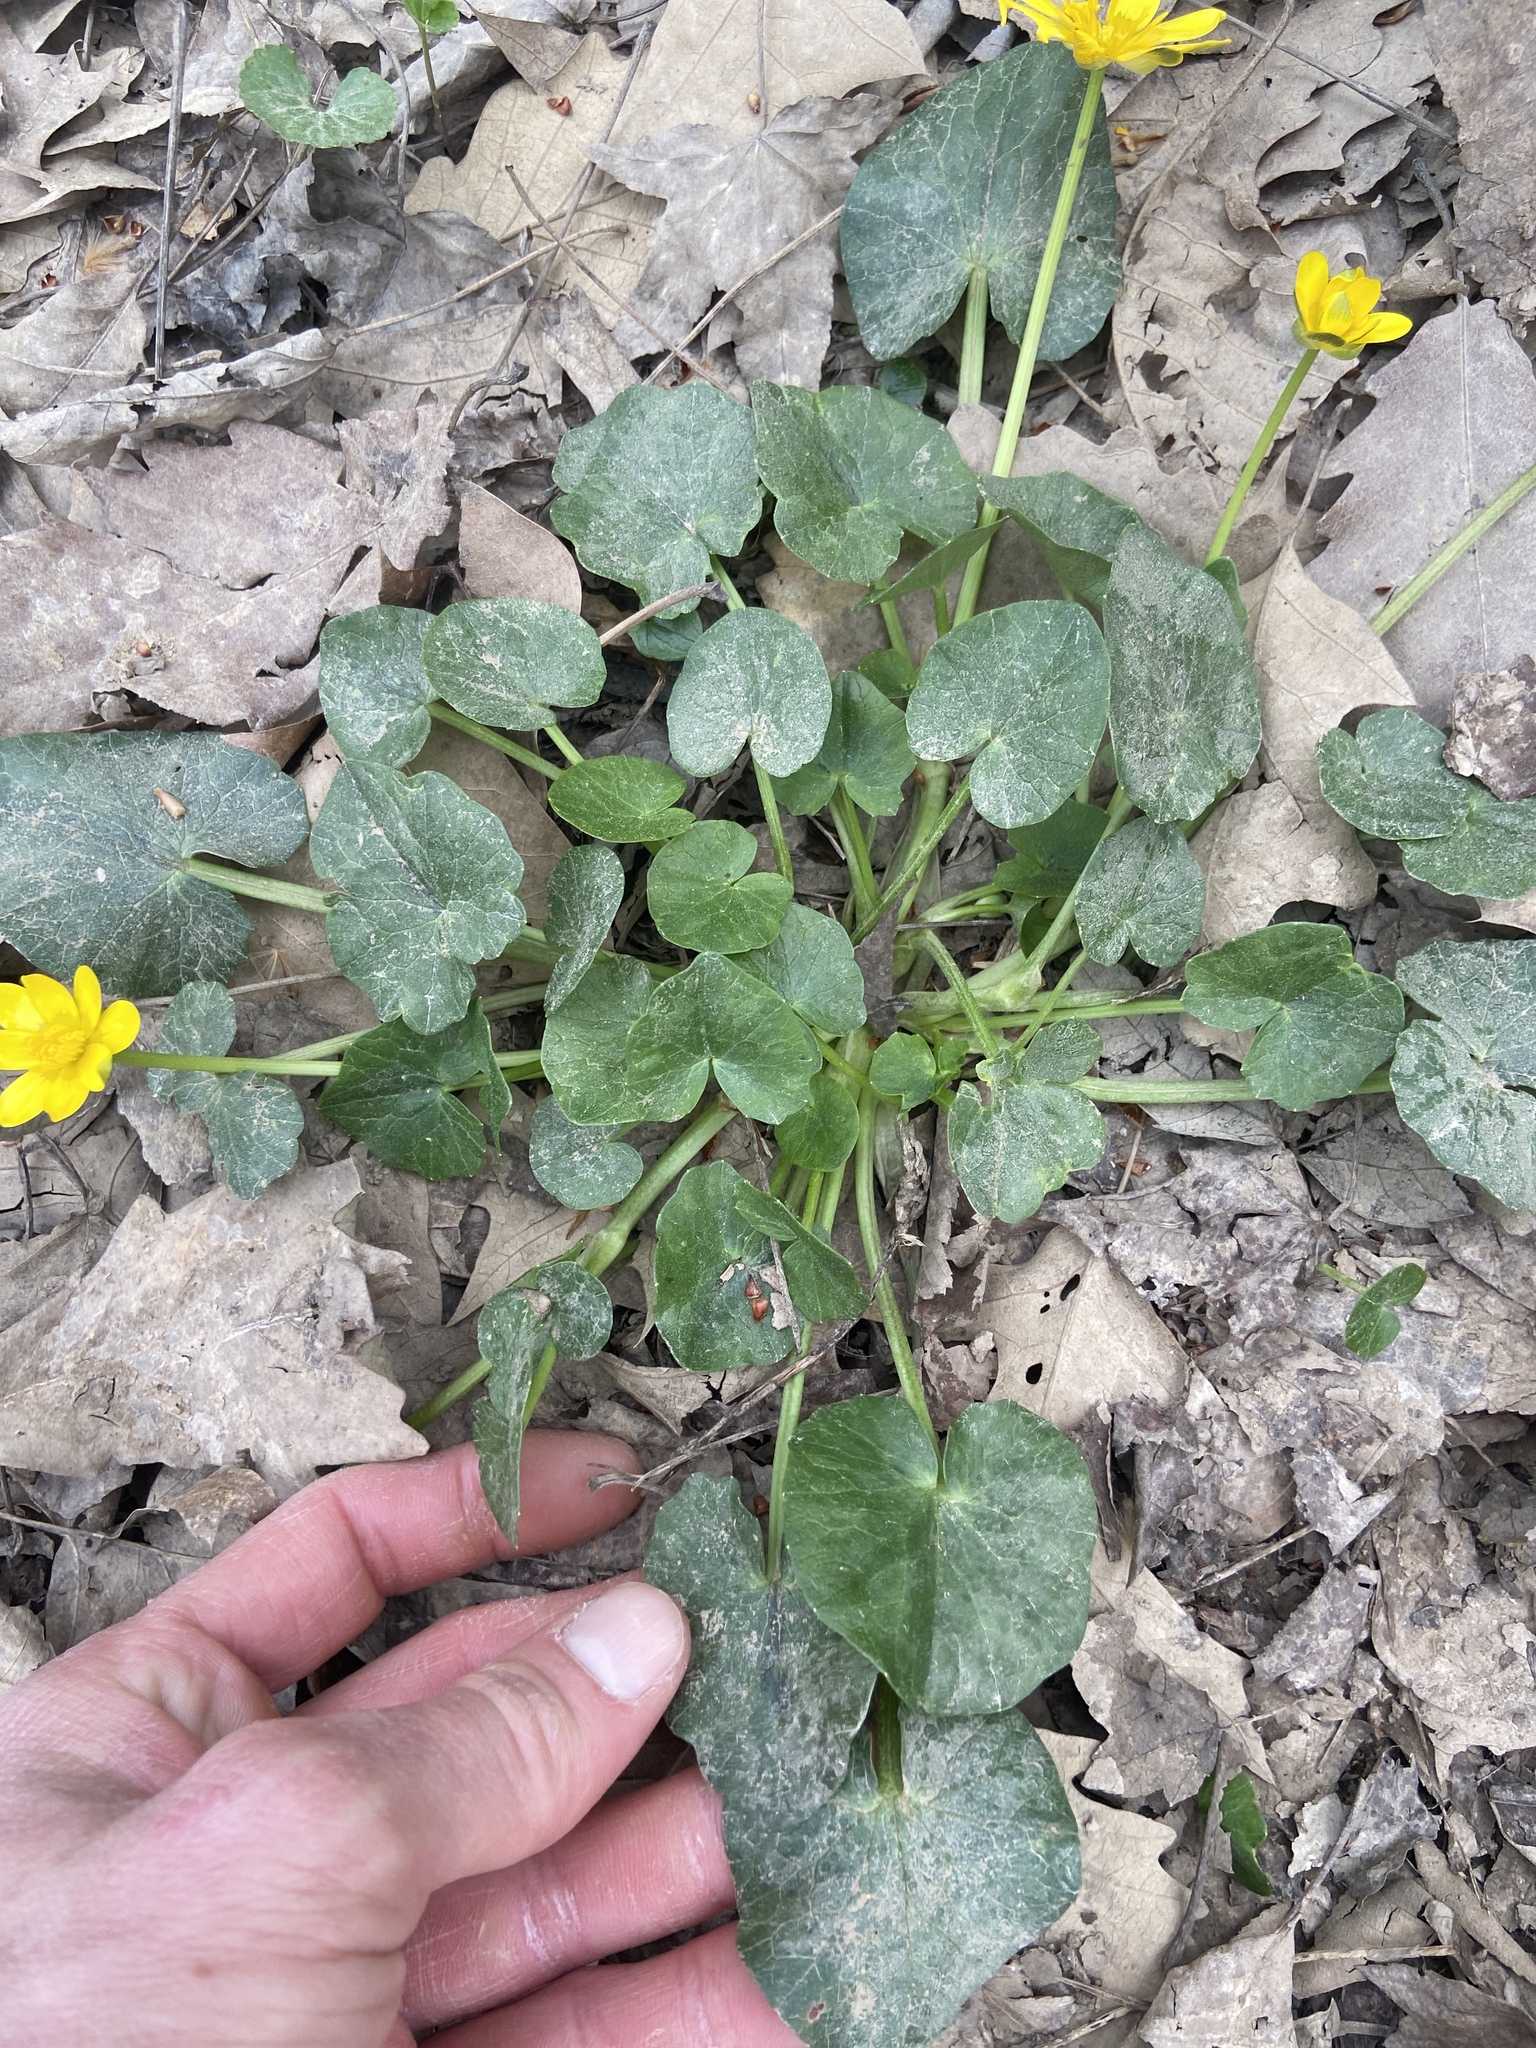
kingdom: Plantae
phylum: Tracheophyta
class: Magnoliopsida
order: Ranunculales
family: Ranunculaceae
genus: Ficaria
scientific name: Ficaria grandiflora
